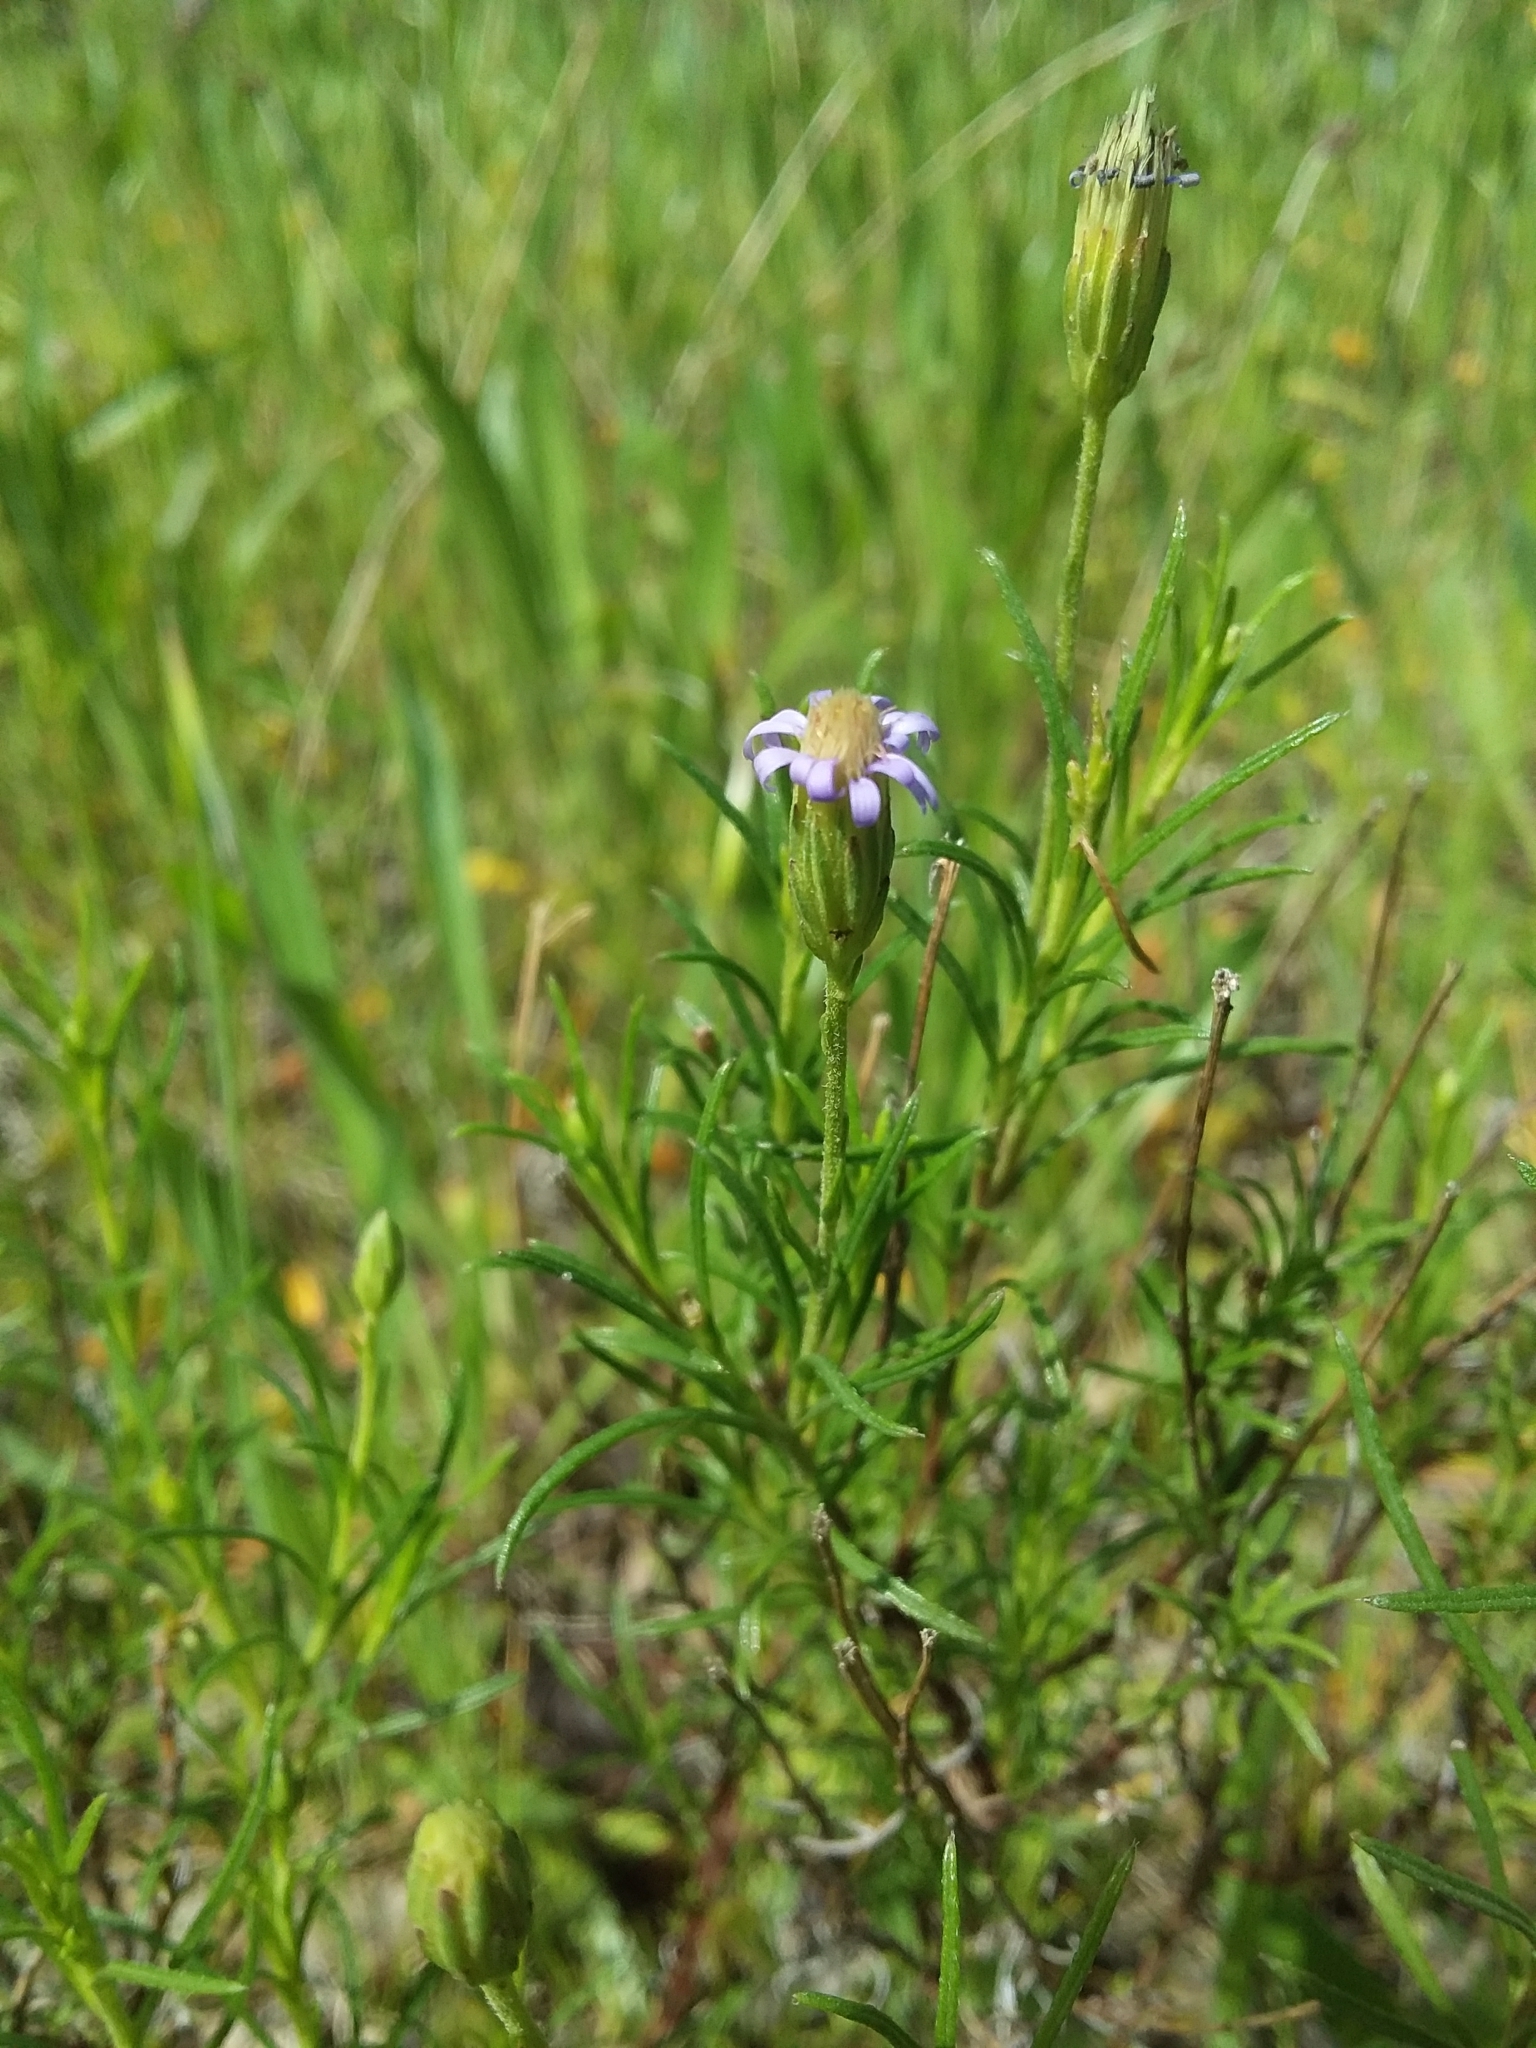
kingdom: Plantae
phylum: Tracheophyta
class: Magnoliopsida
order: Asterales
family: Asteraceae
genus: Vittadinia
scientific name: Vittadinia blackii
